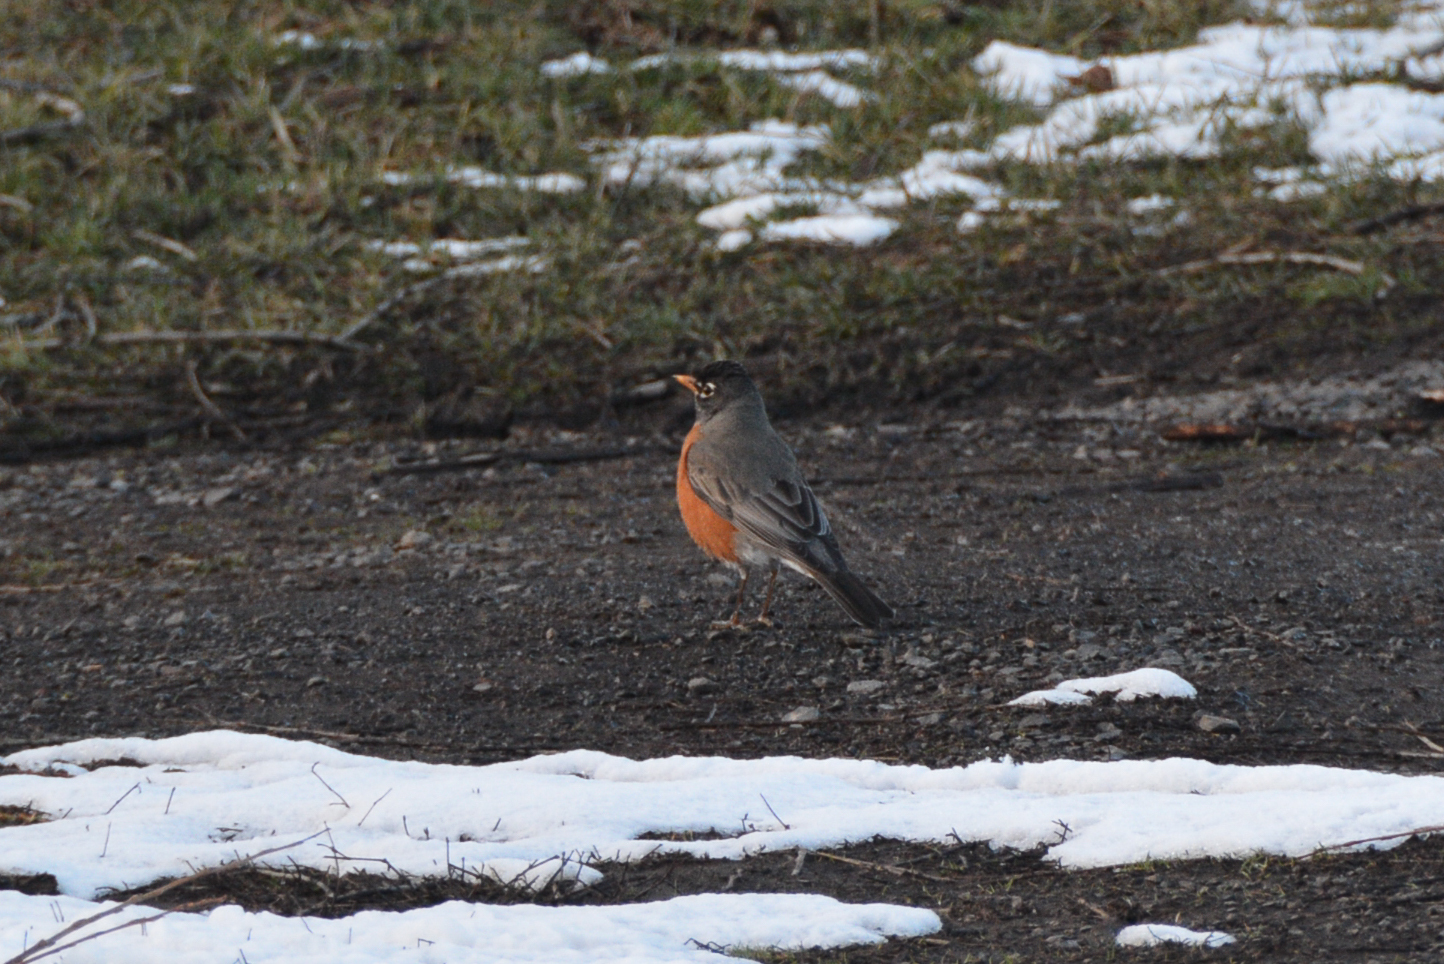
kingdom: Animalia
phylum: Chordata
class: Aves
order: Passeriformes
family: Turdidae
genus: Turdus
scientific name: Turdus migratorius
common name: American robin
